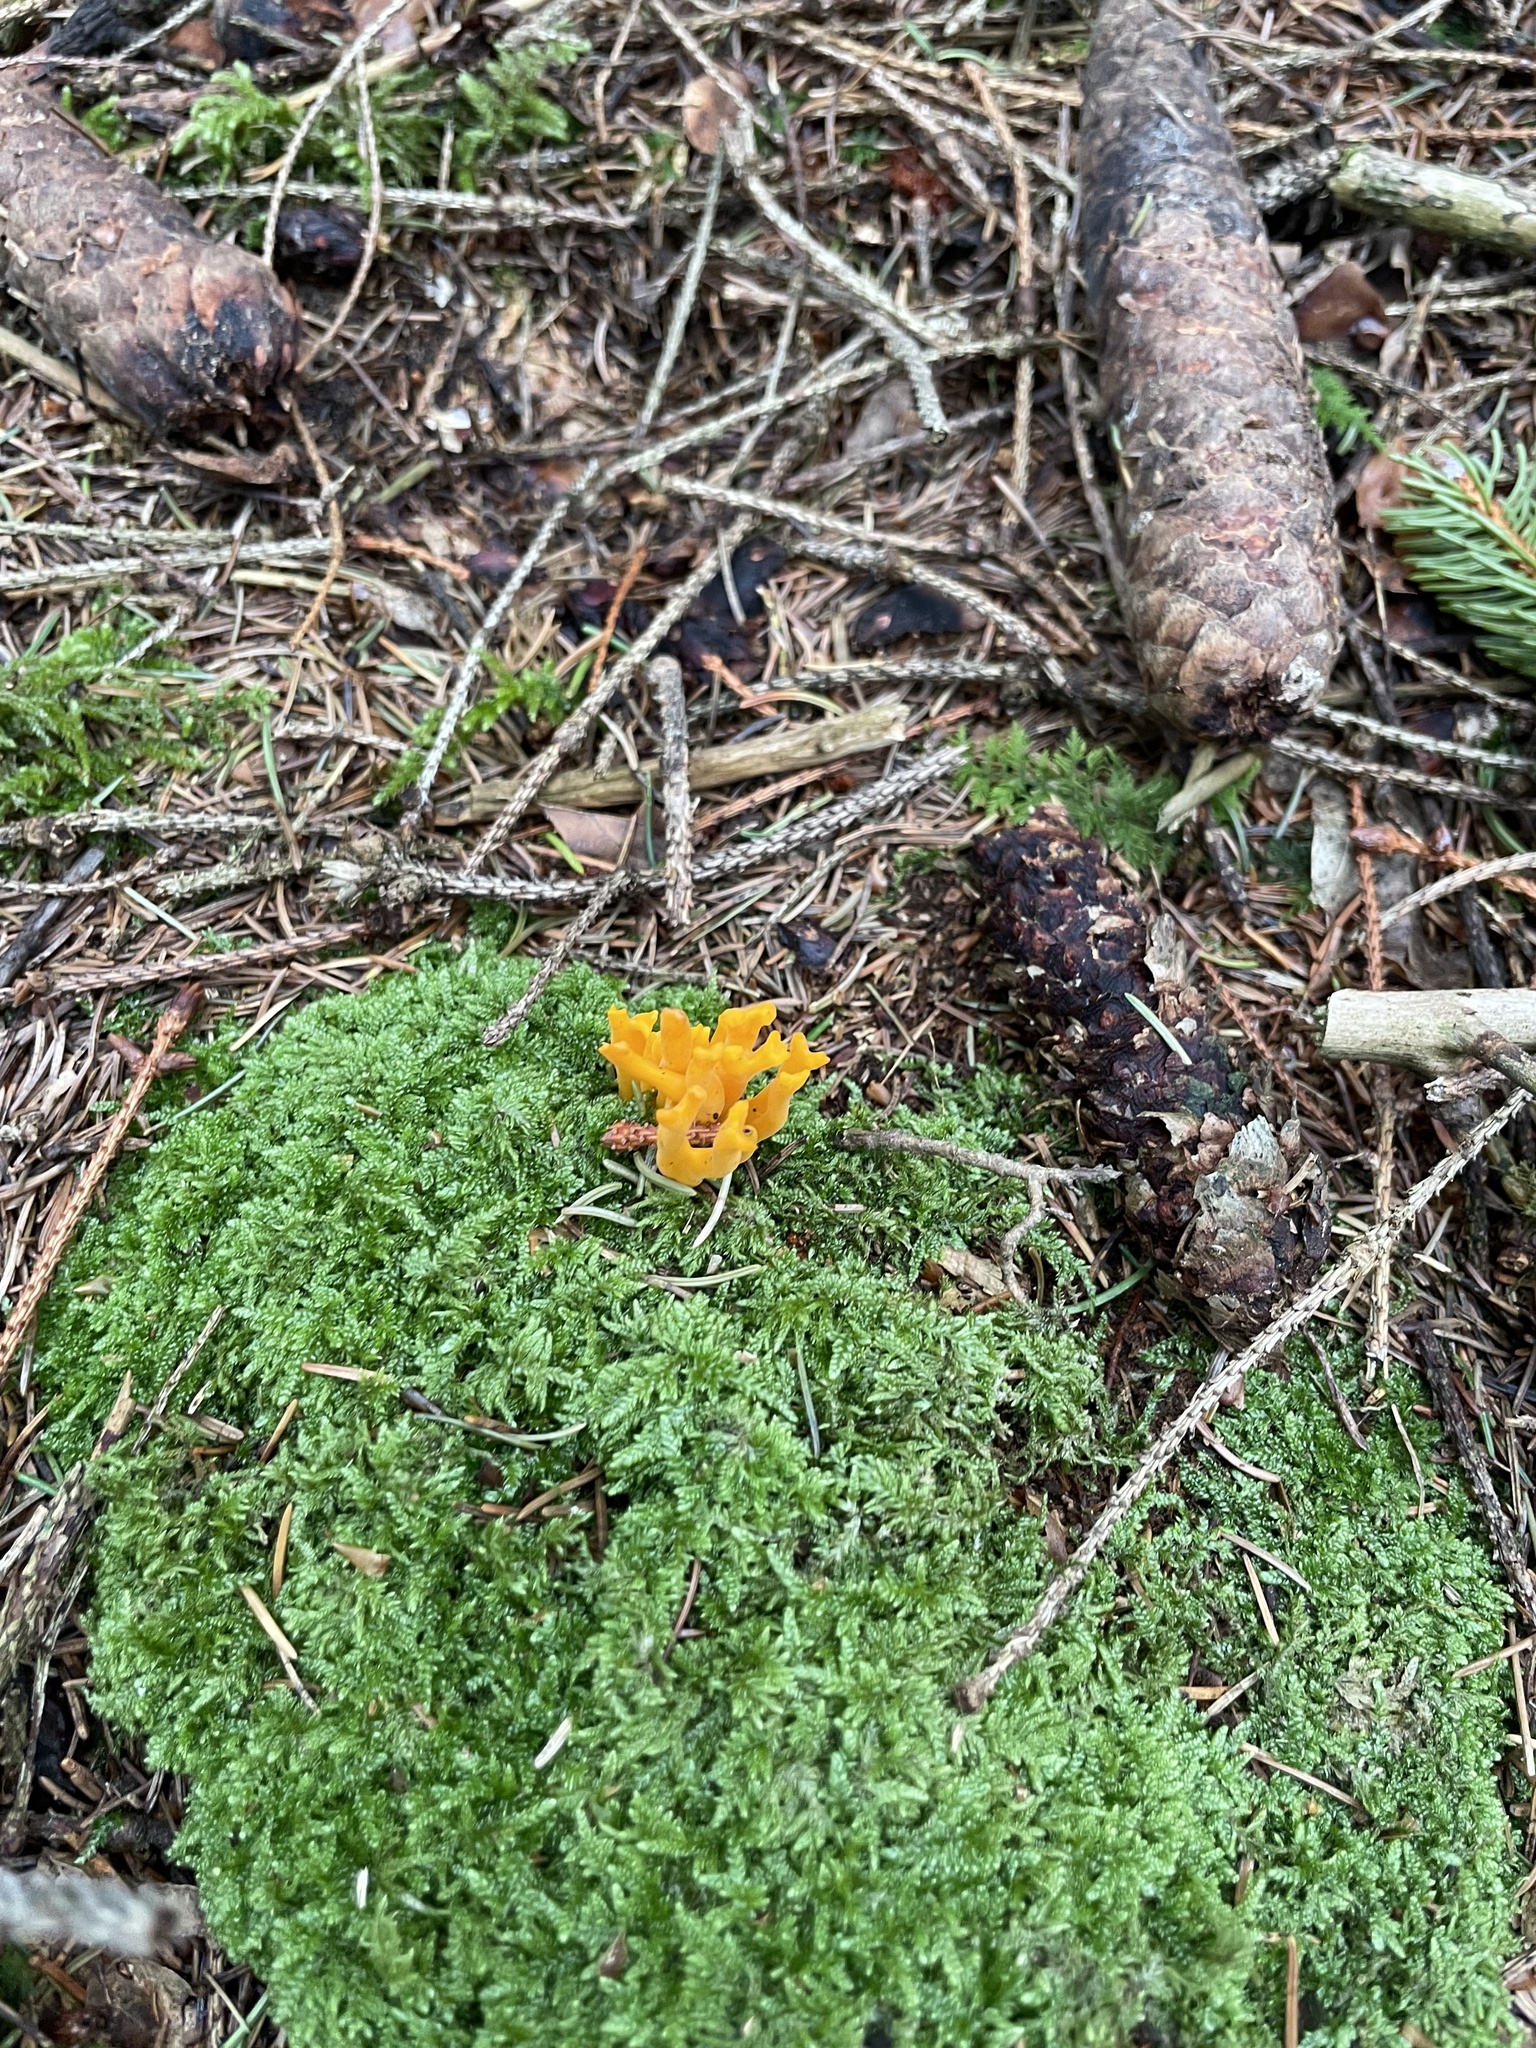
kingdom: Fungi
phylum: Basidiomycota
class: Dacrymycetes
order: Dacrymycetales
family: Dacrymycetaceae
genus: Calocera
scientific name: Calocera viscosa
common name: Yellow stagshorn
